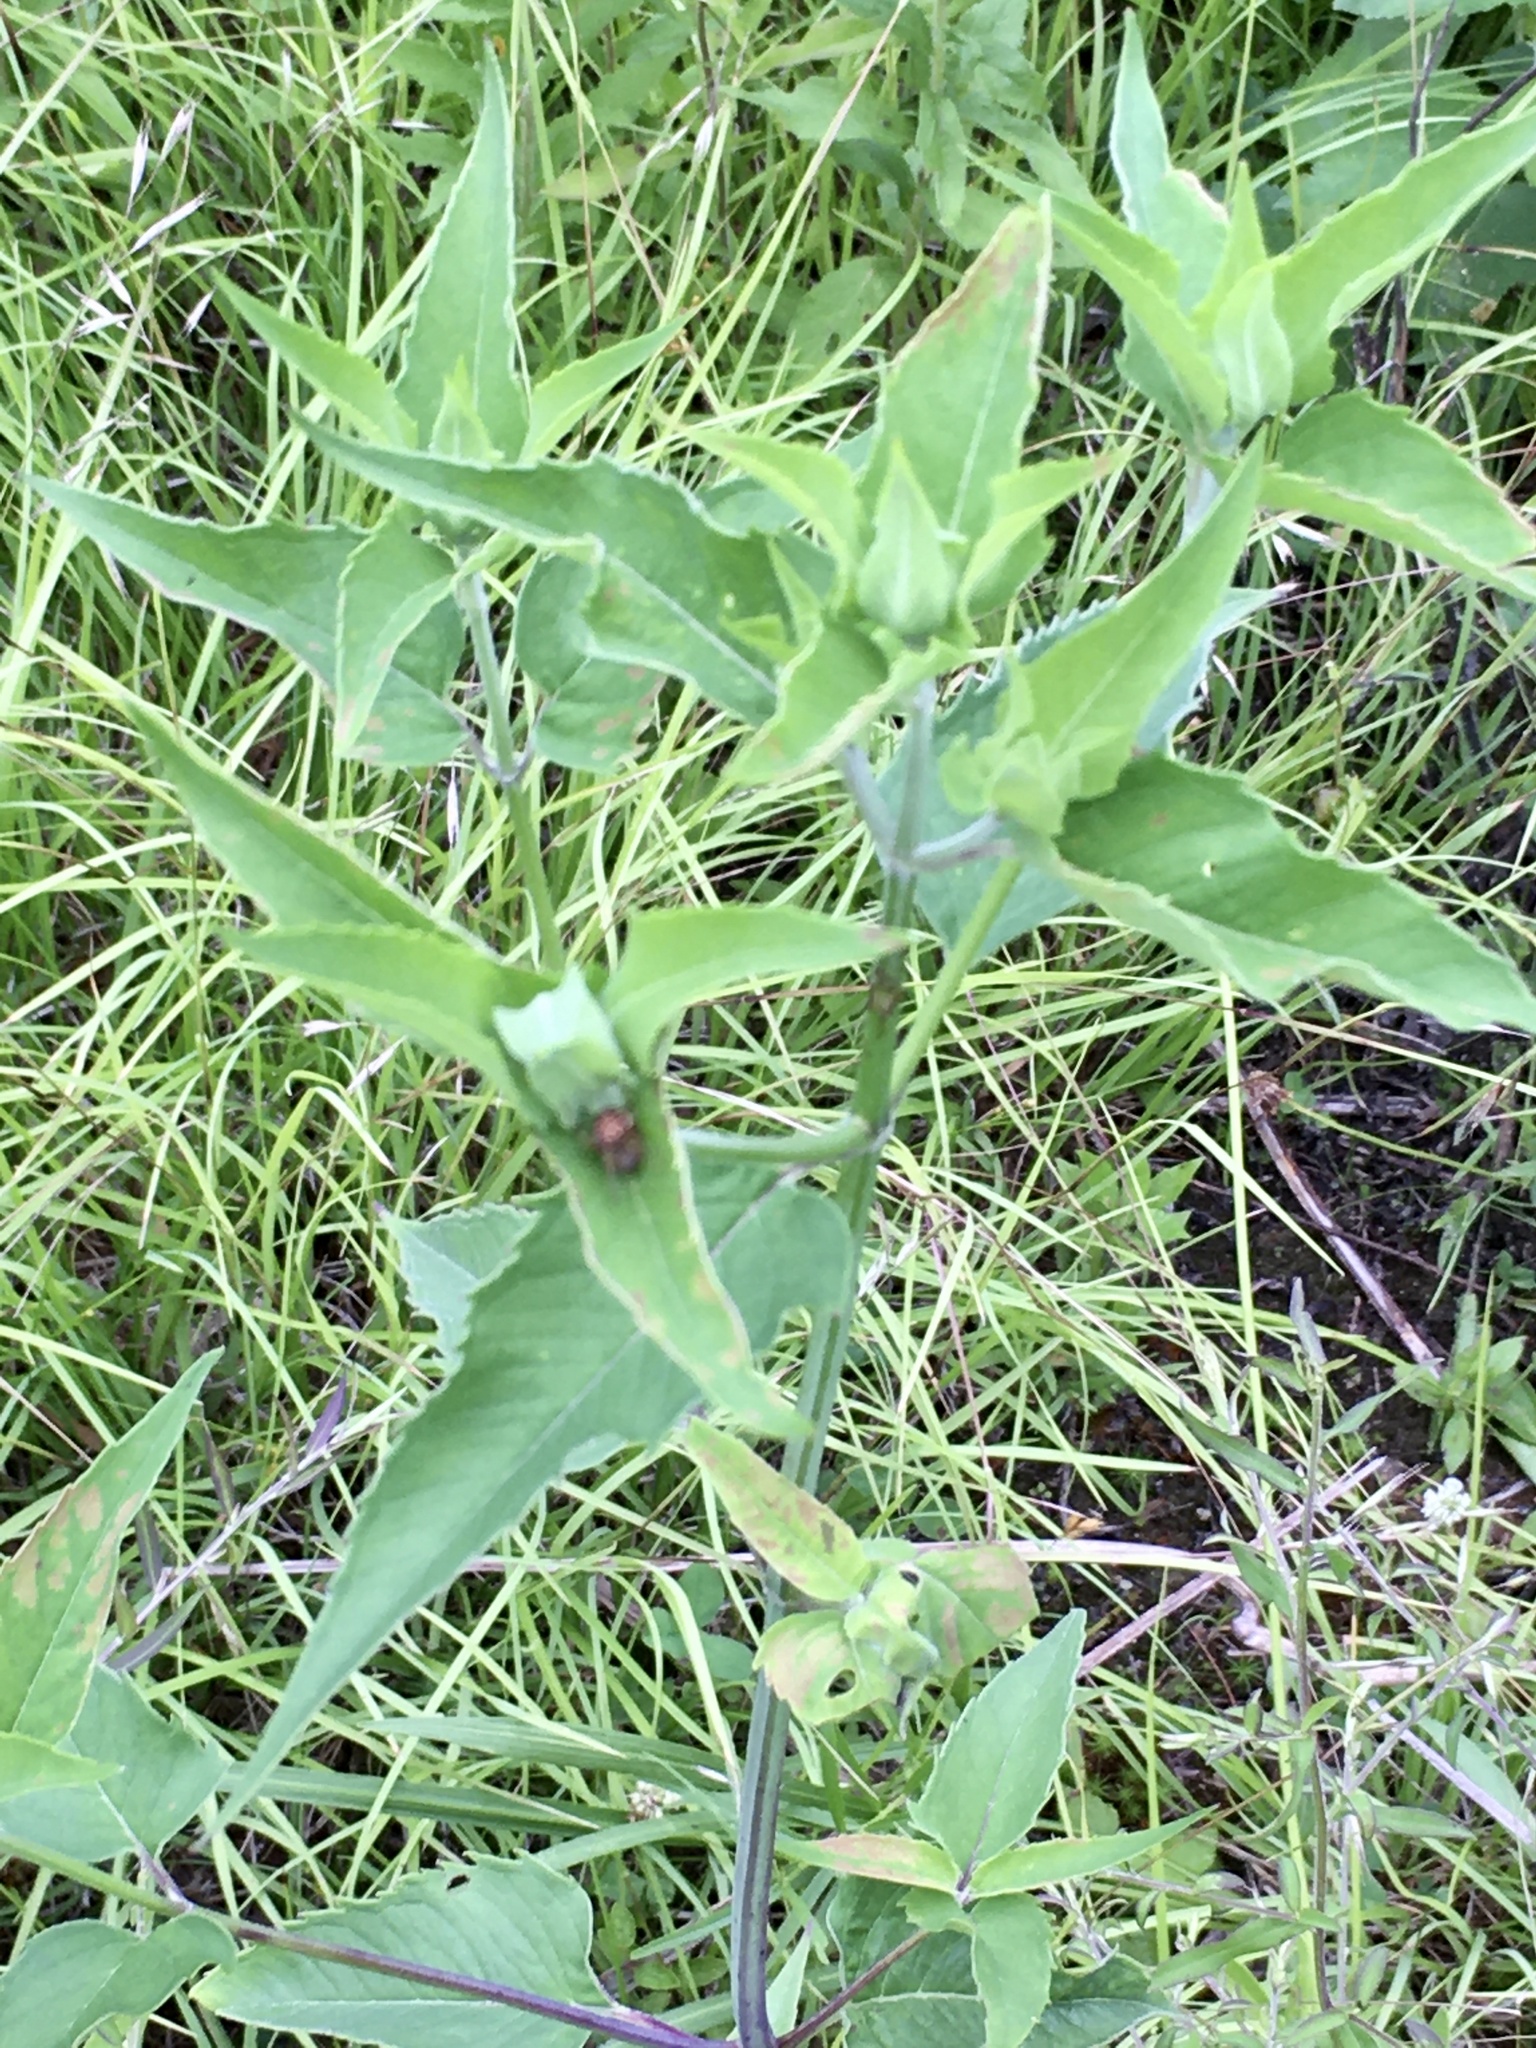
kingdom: Animalia
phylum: Arthropoda
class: Arachnida
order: Araneae
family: Araneidae
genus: Neoscona
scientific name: Neoscona arabesca
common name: Orb weavers
